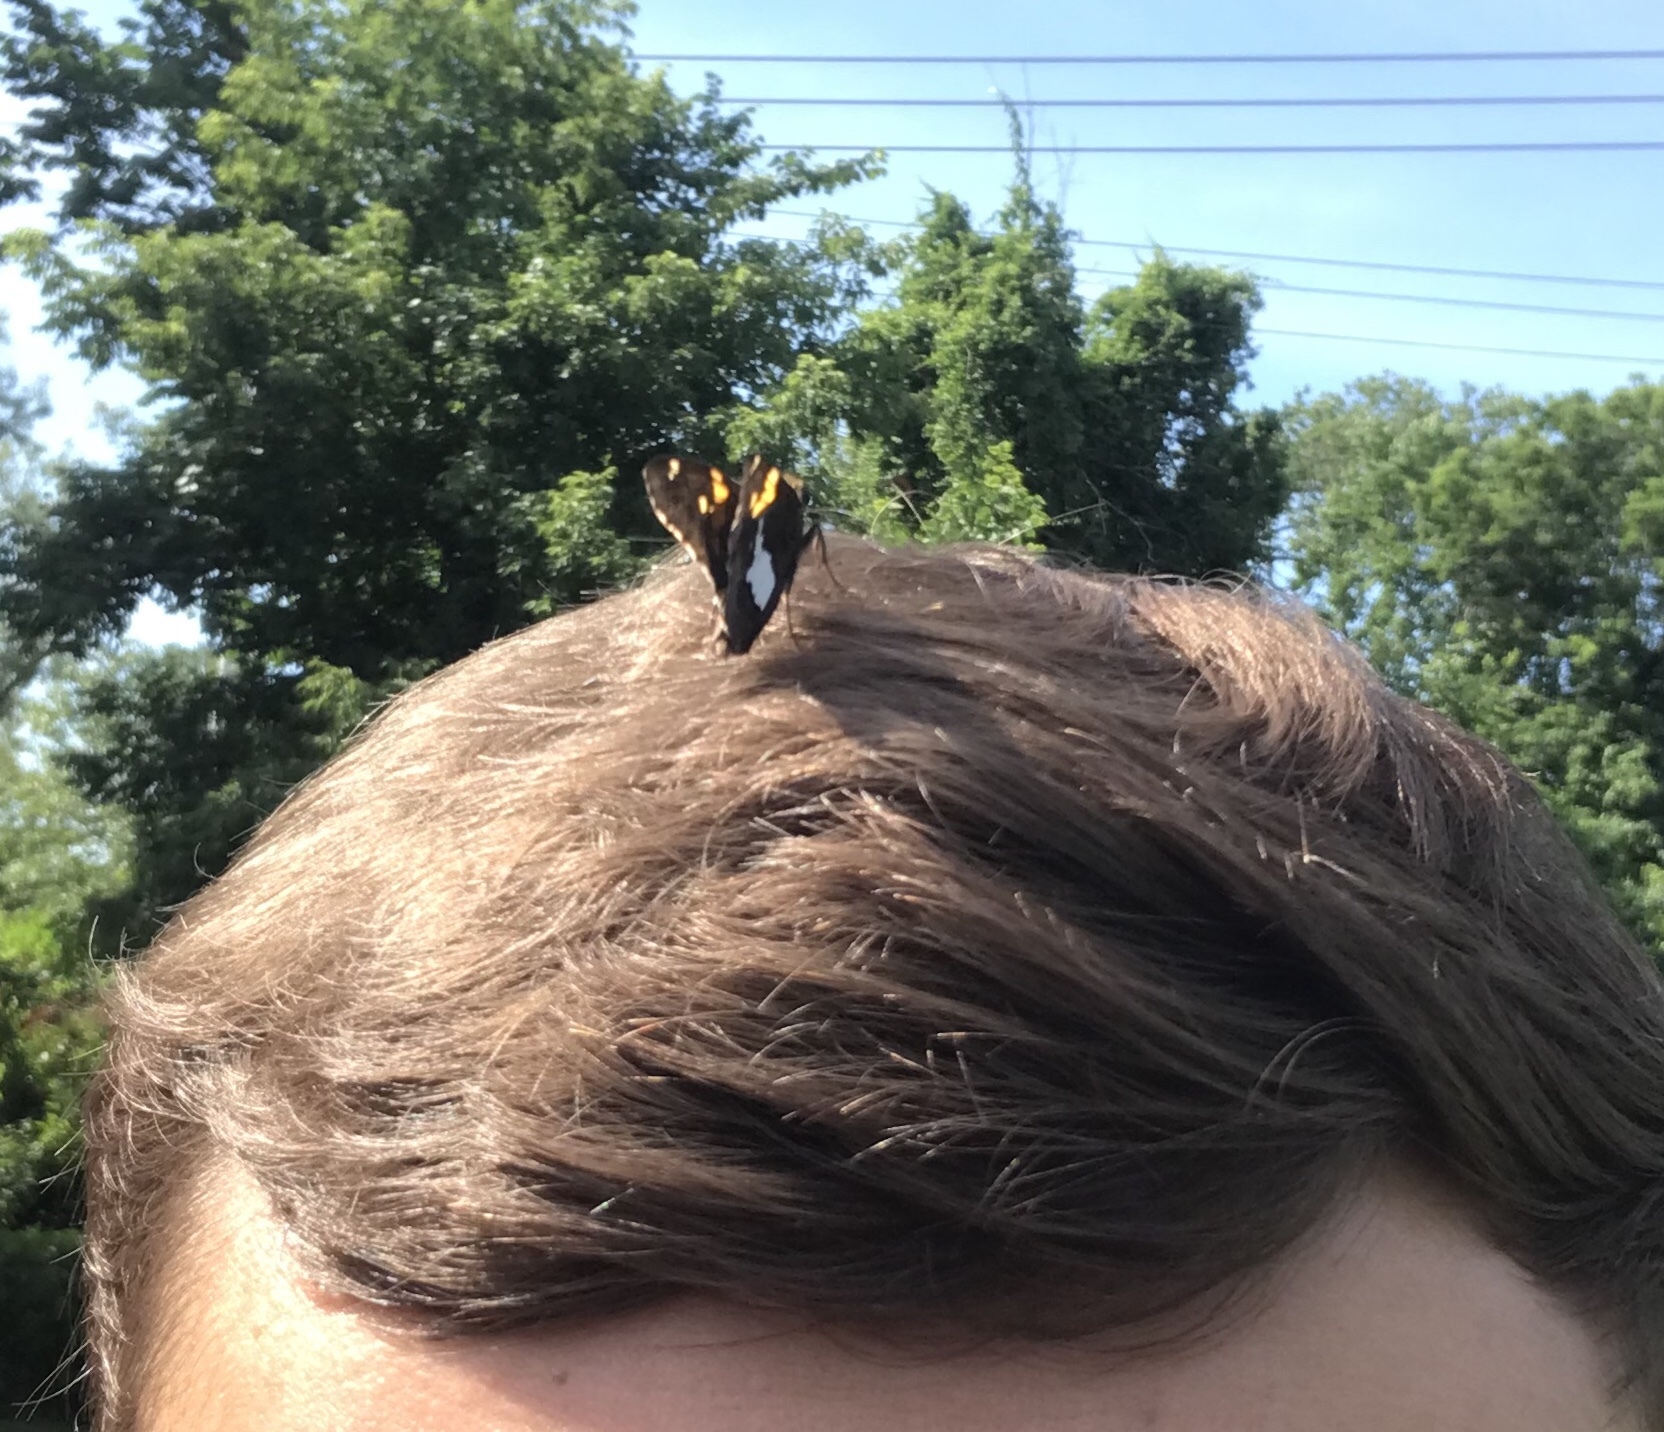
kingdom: Animalia
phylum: Arthropoda
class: Insecta
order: Lepidoptera
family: Hesperiidae
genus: Epargyreus
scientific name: Epargyreus clarus
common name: Silver-spotted skipper
